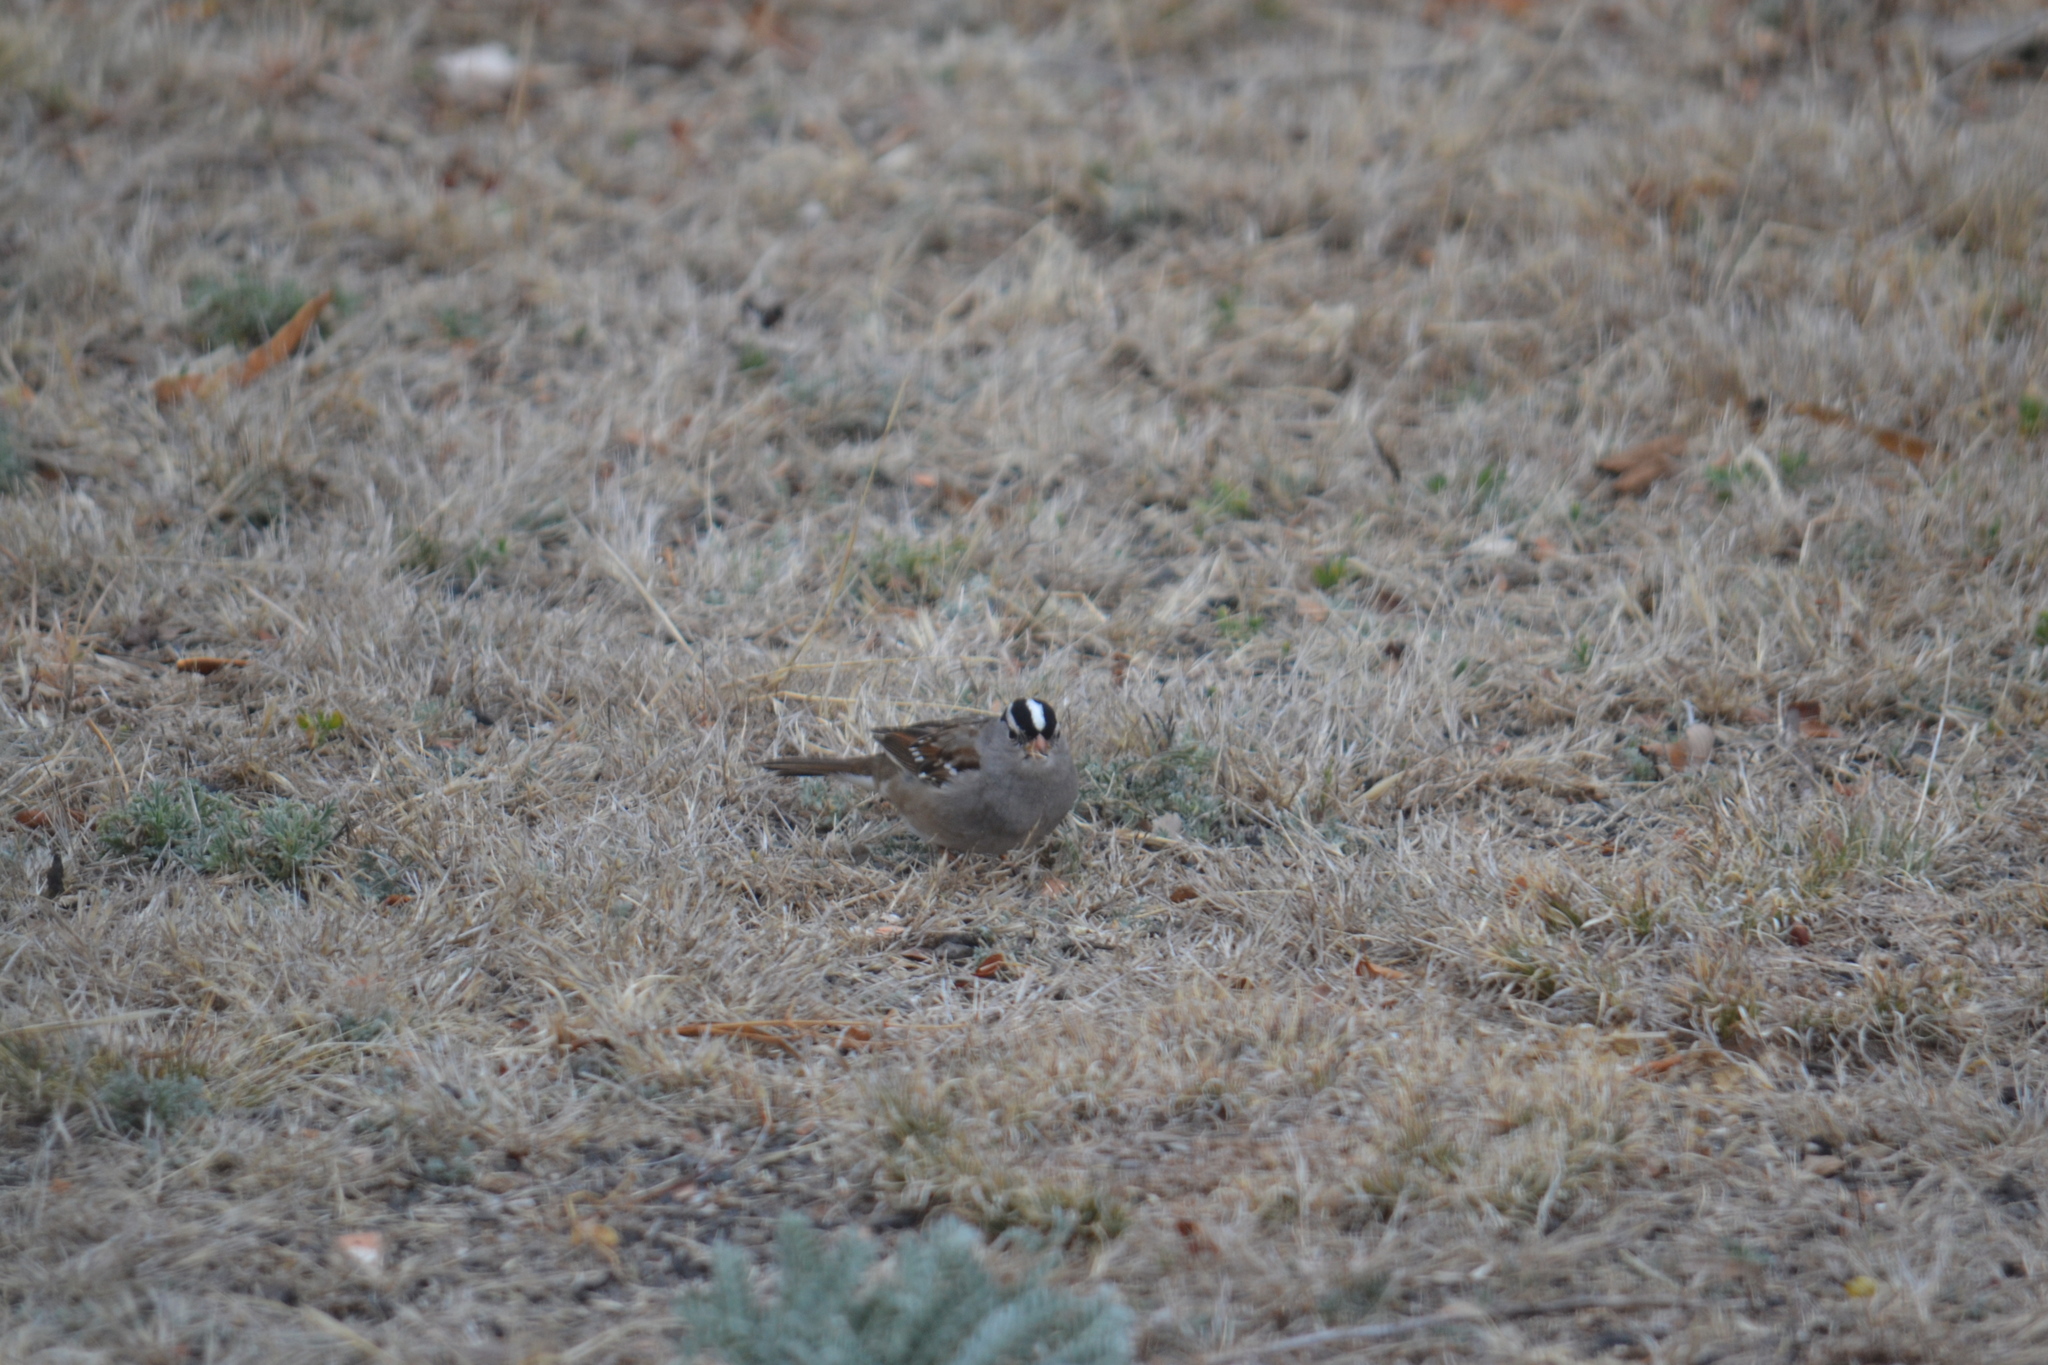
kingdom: Animalia
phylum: Chordata
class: Aves
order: Passeriformes
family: Passerellidae
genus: Zonotrichia
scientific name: Zonotrichia leucophrys
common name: White-crowned sparrow
